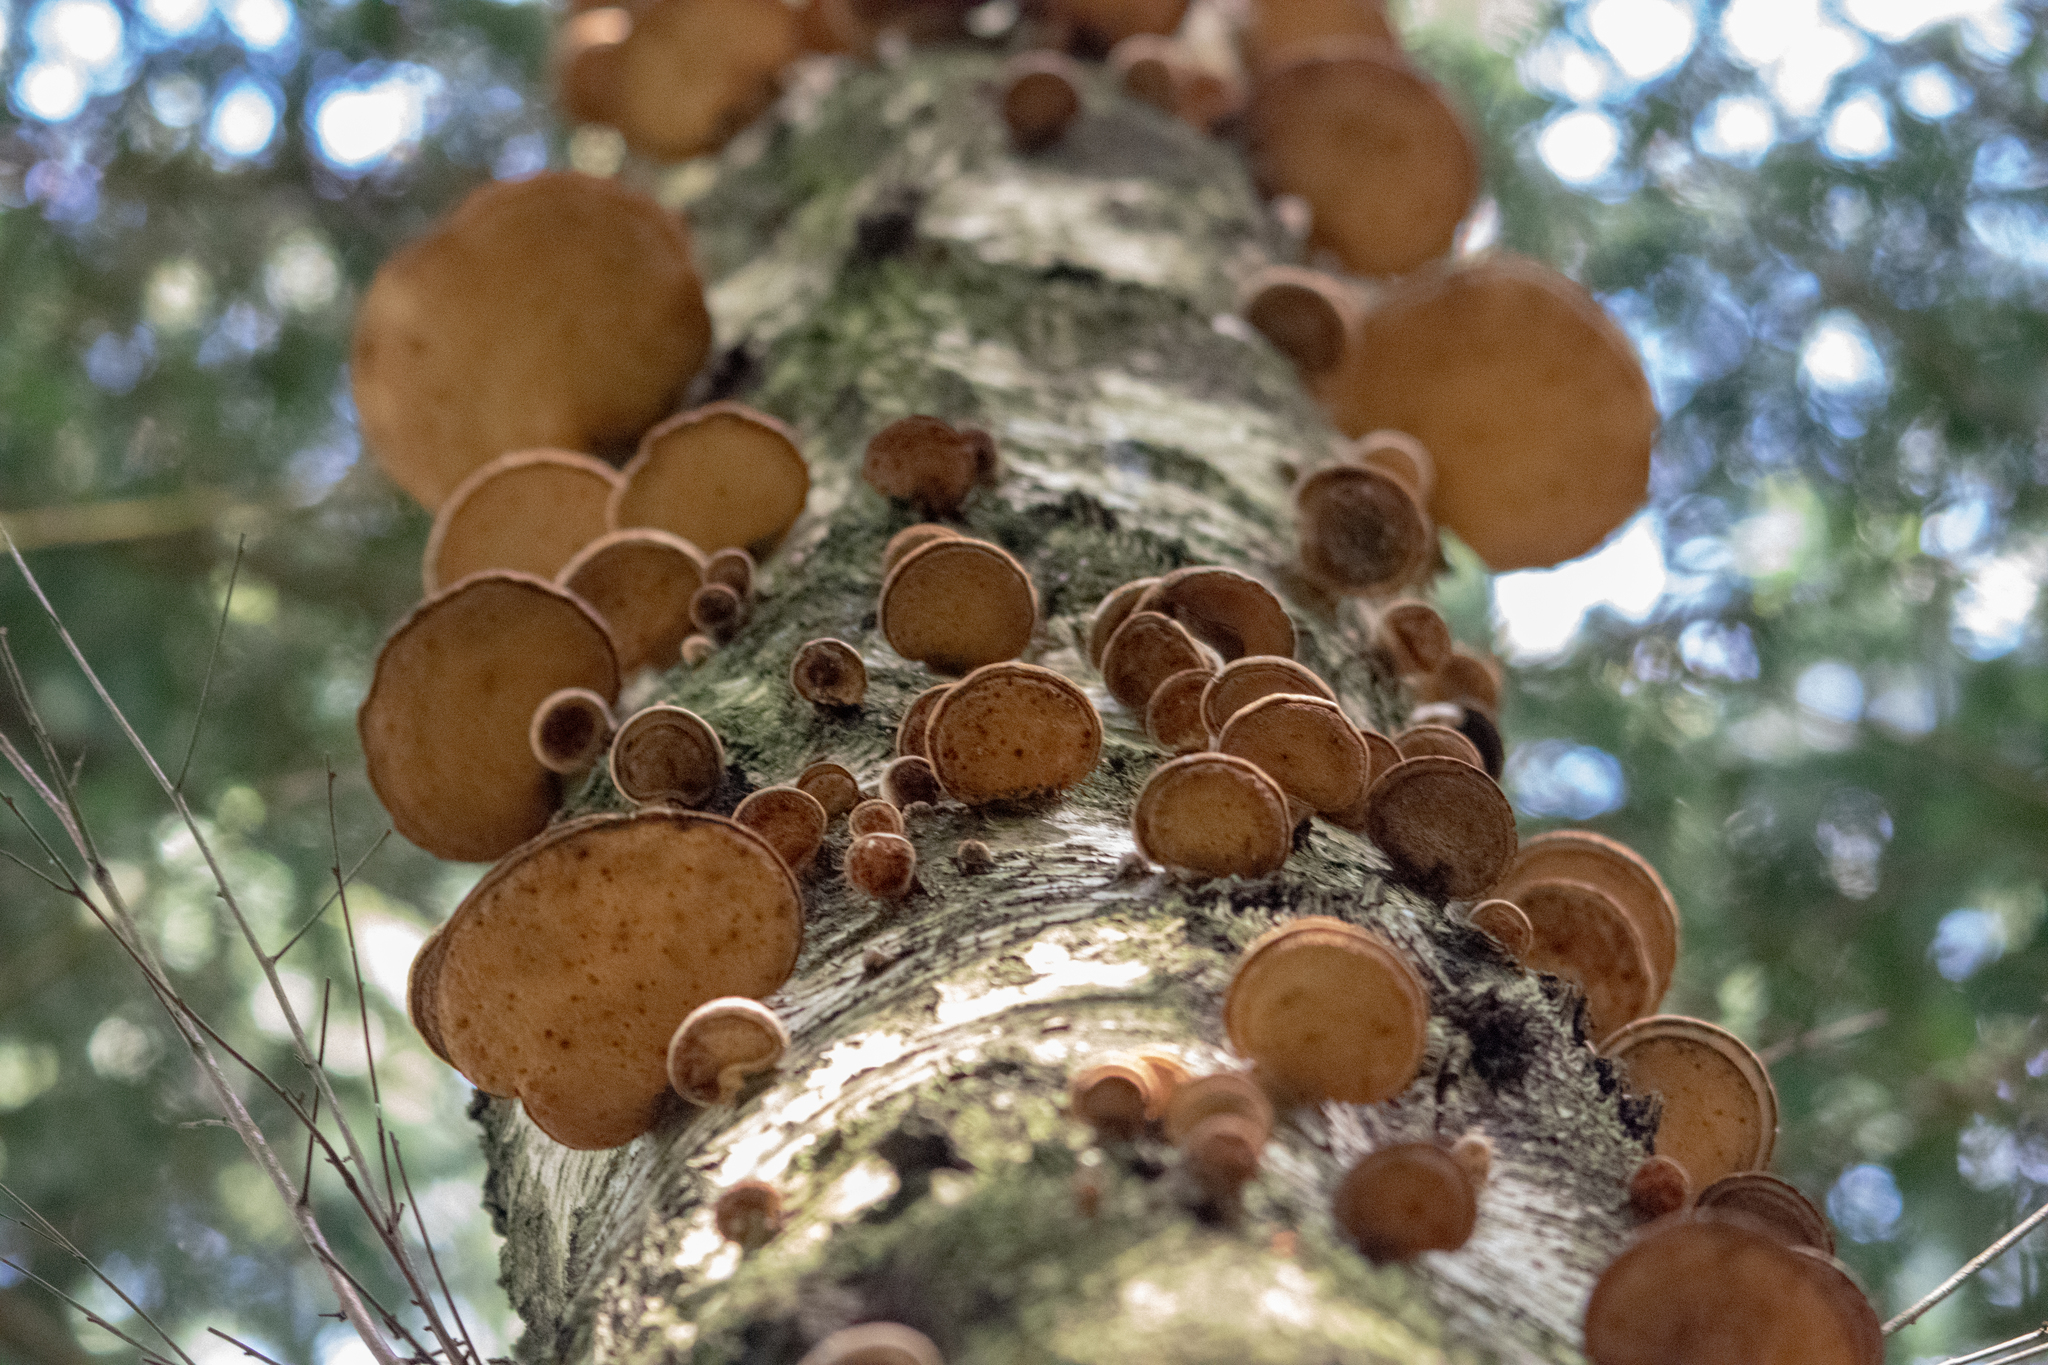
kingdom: Fungi
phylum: Basidiomycota
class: Agaricomycetes
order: Polyporales
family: Fomitopsidaceae
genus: Fomitopsis
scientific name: Fomitopsis betulina
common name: Birch polypore
